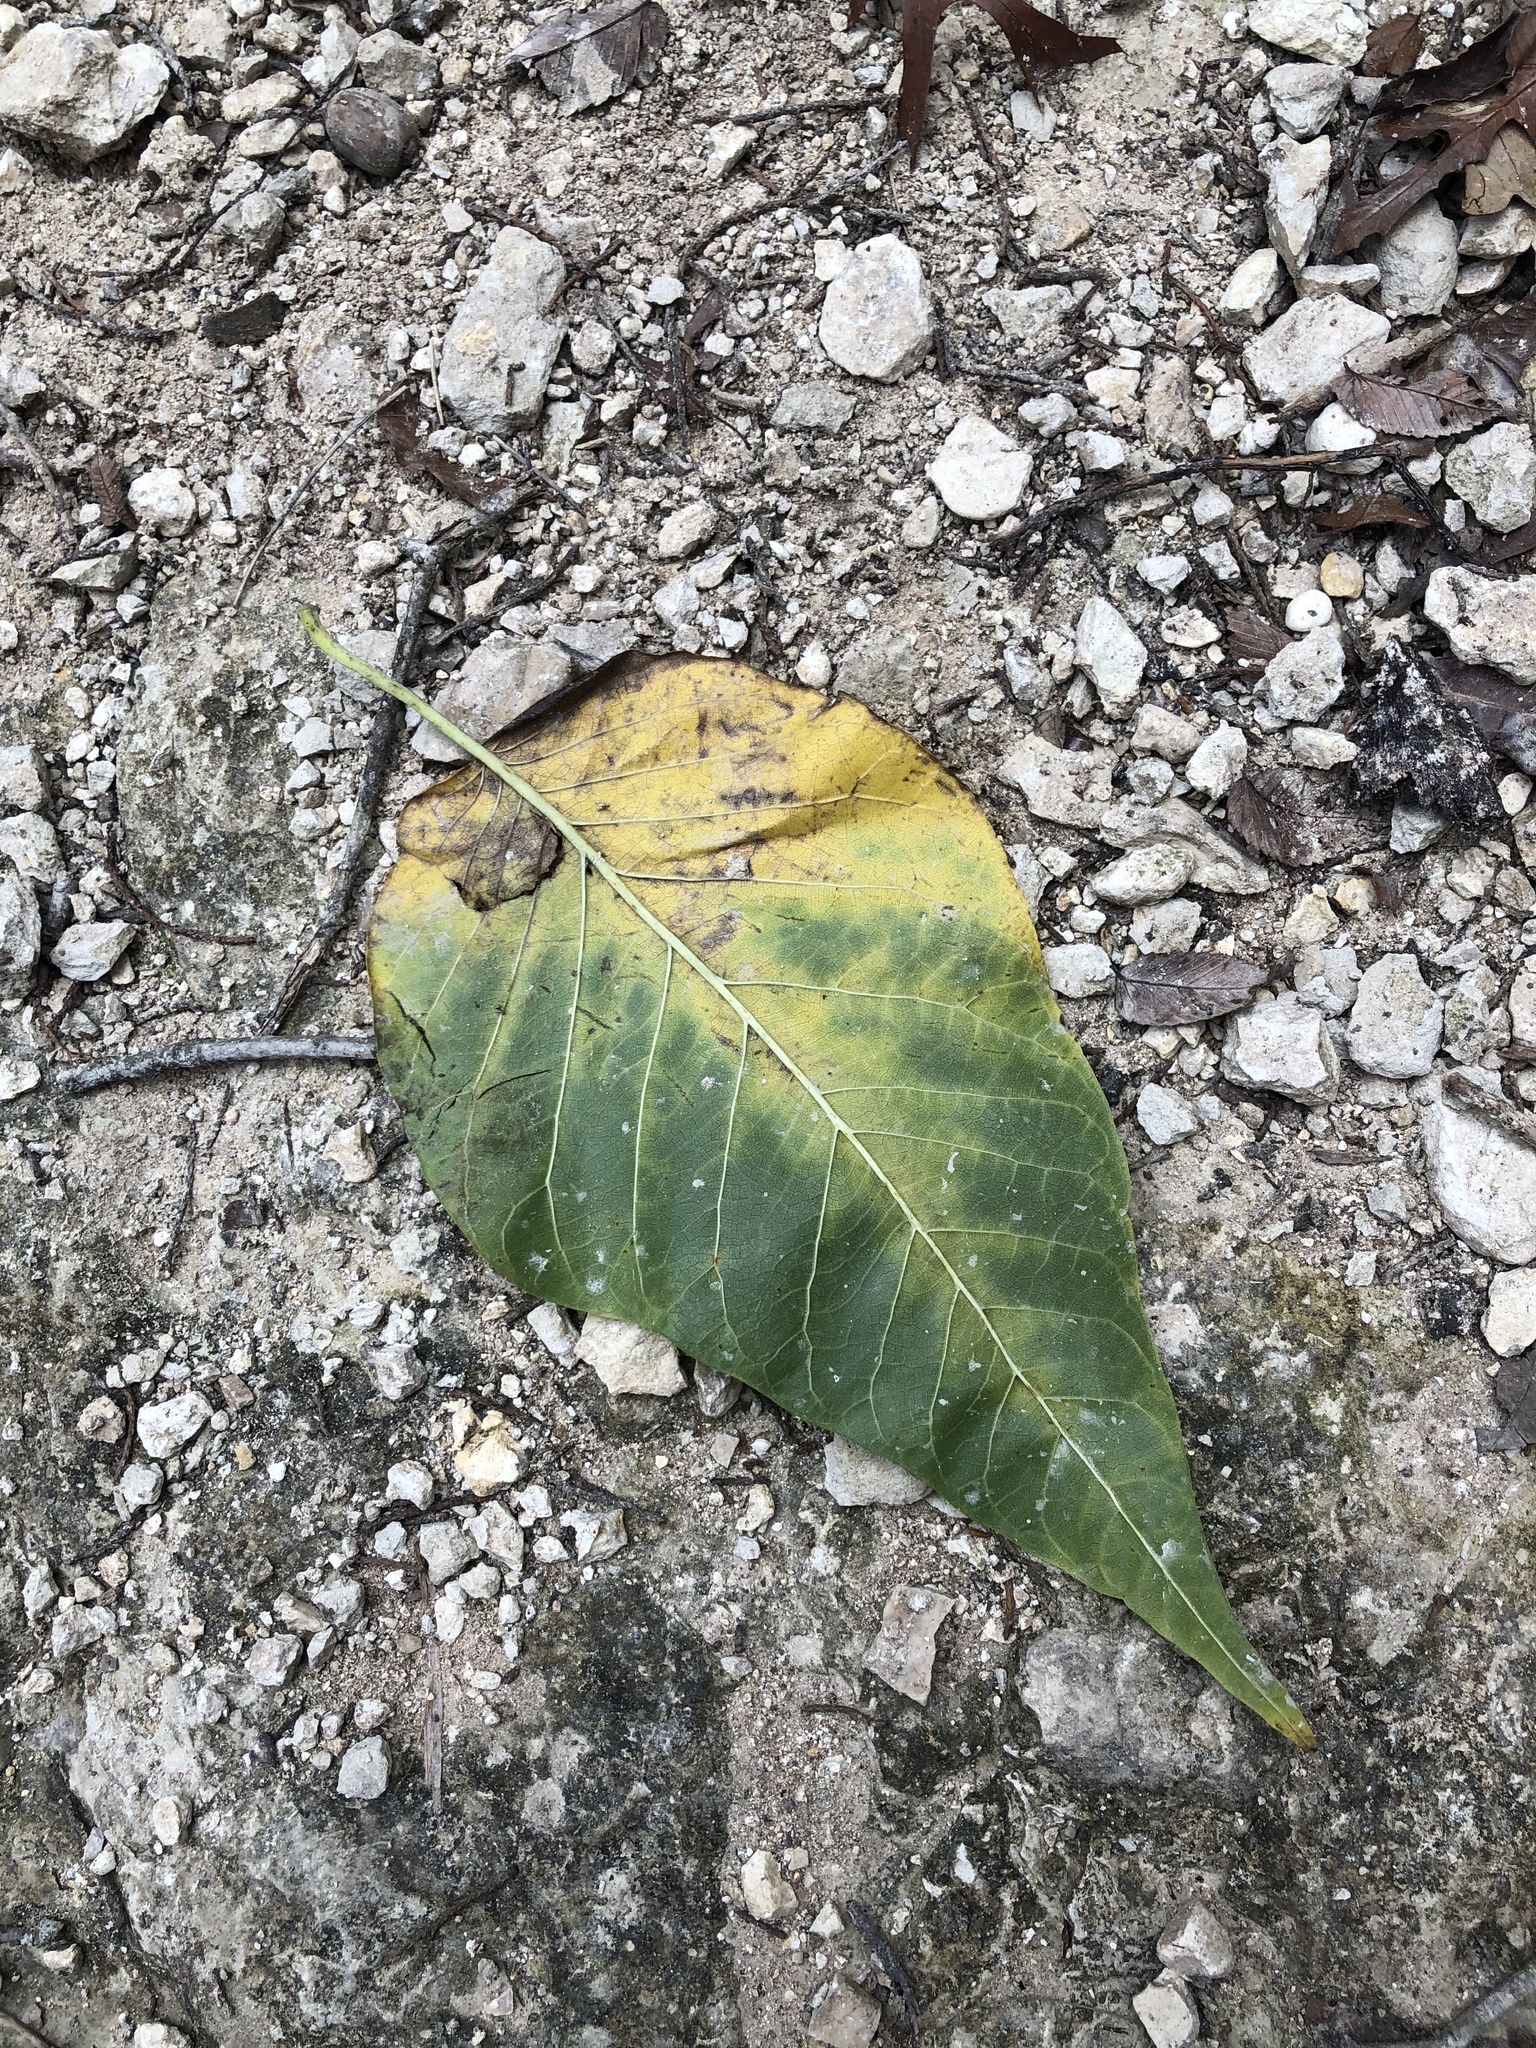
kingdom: Plantae
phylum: Tracheophyta
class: Magnoliopsida
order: Rosales
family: Moraceae
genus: Maclura
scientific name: Maclura pomifera
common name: Osage-orange
